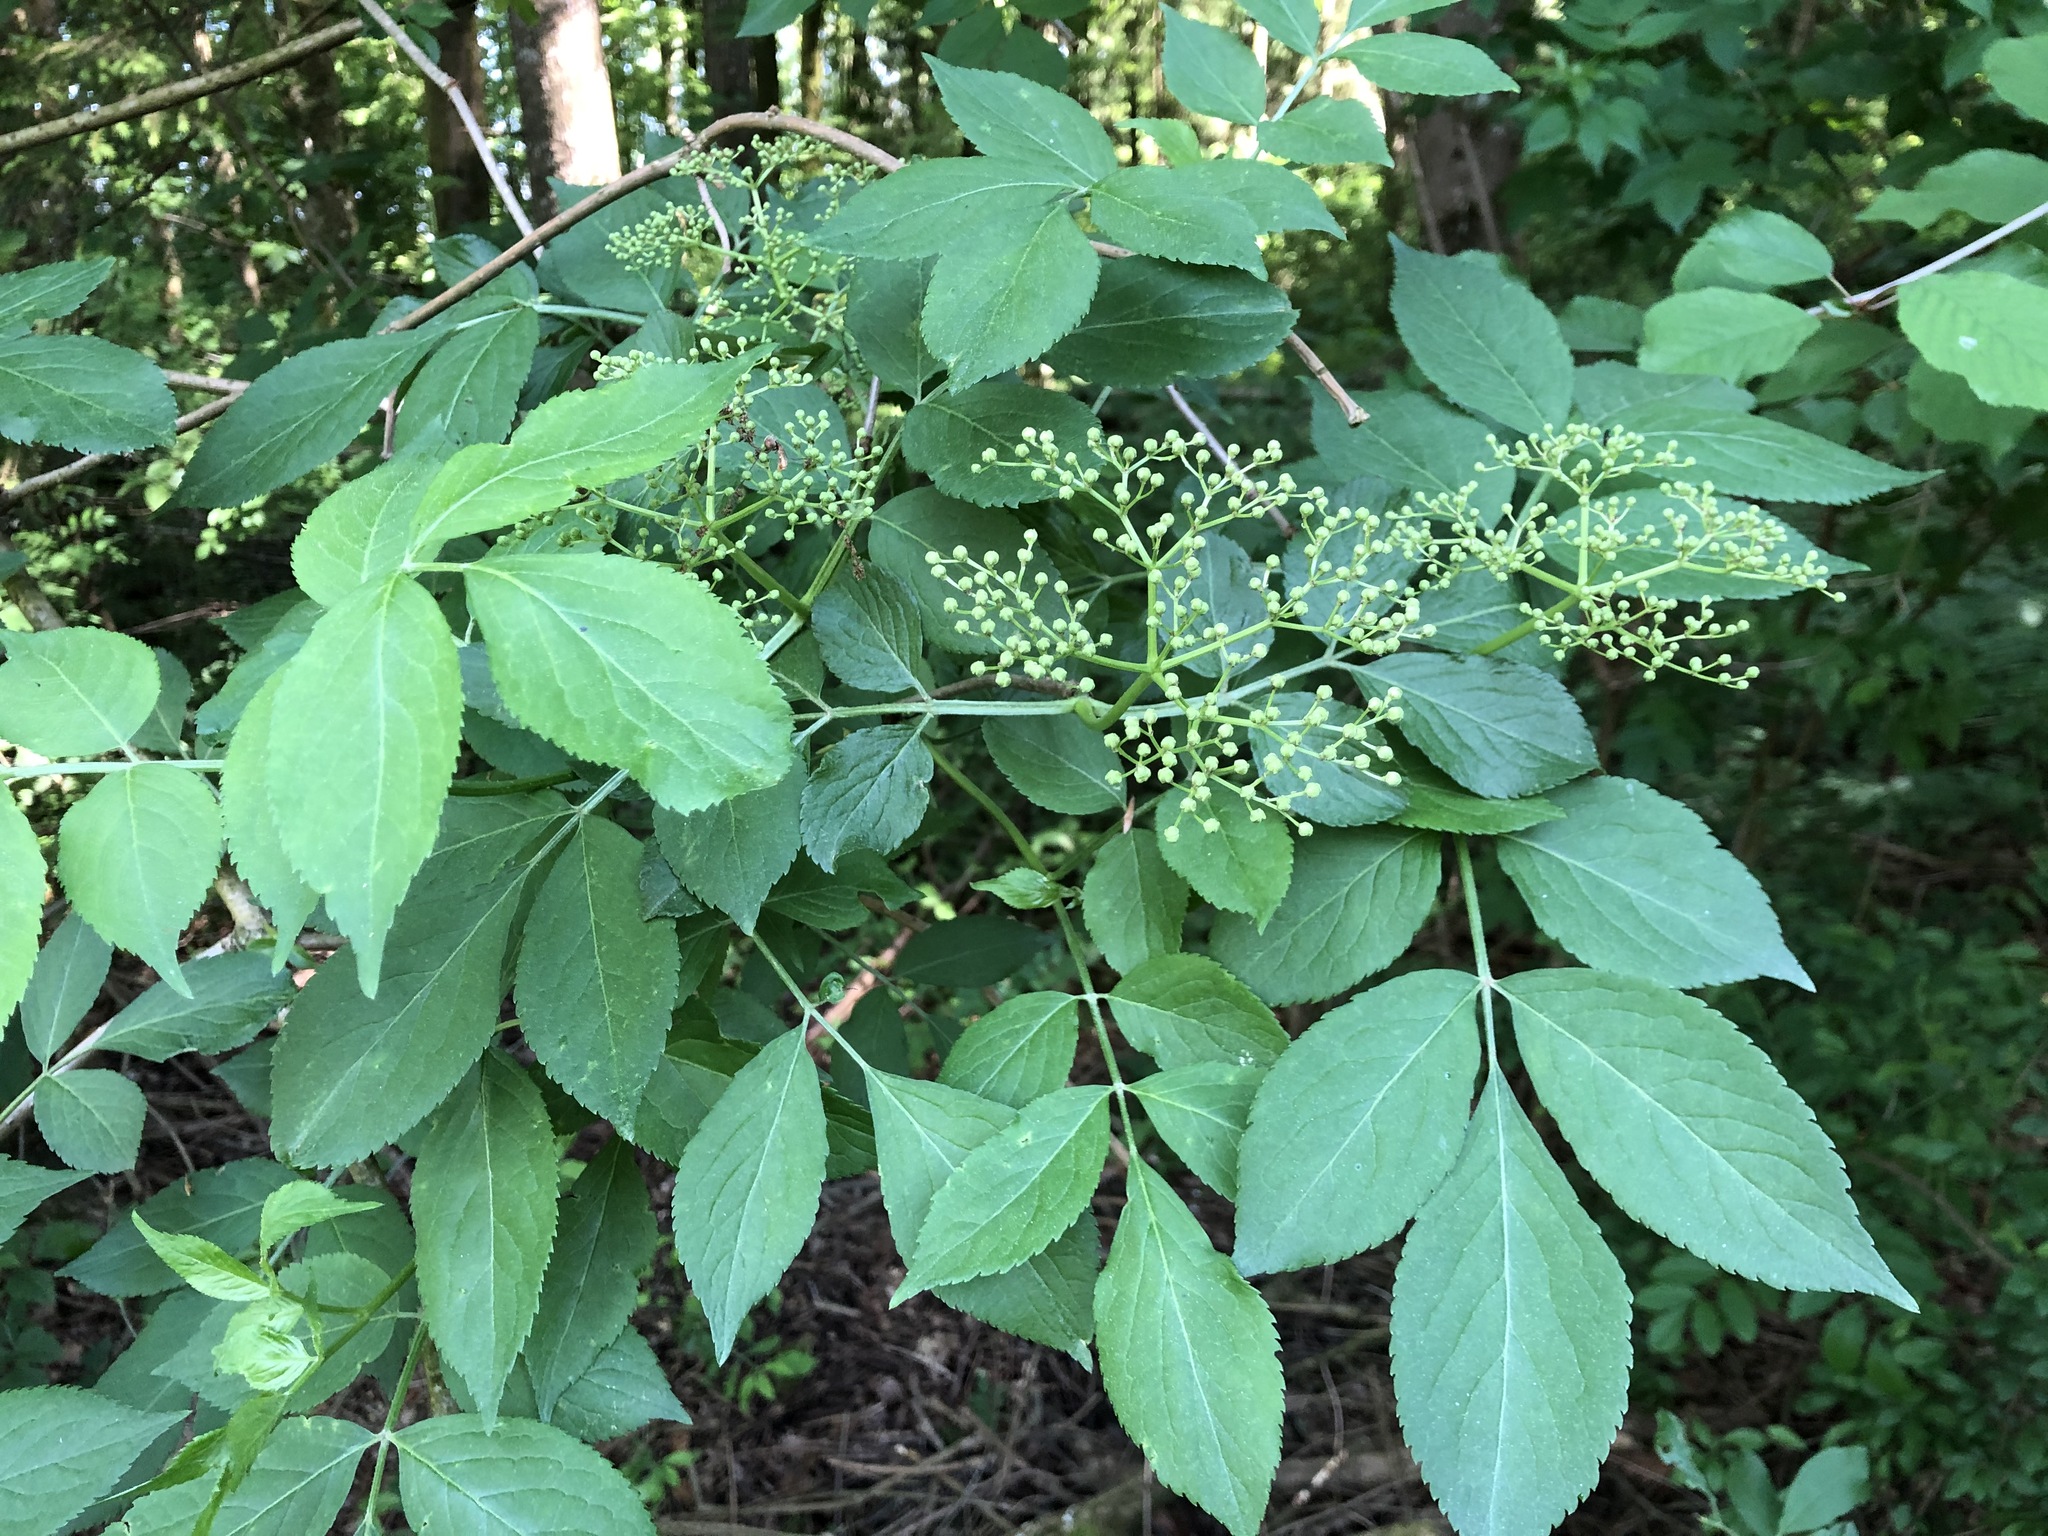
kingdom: Plantae
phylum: Tracheophyta
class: Magnoliopsida
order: Dipsacales
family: Viburnaceae
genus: Sambucus
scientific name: Sambucus nigra
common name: Elder
